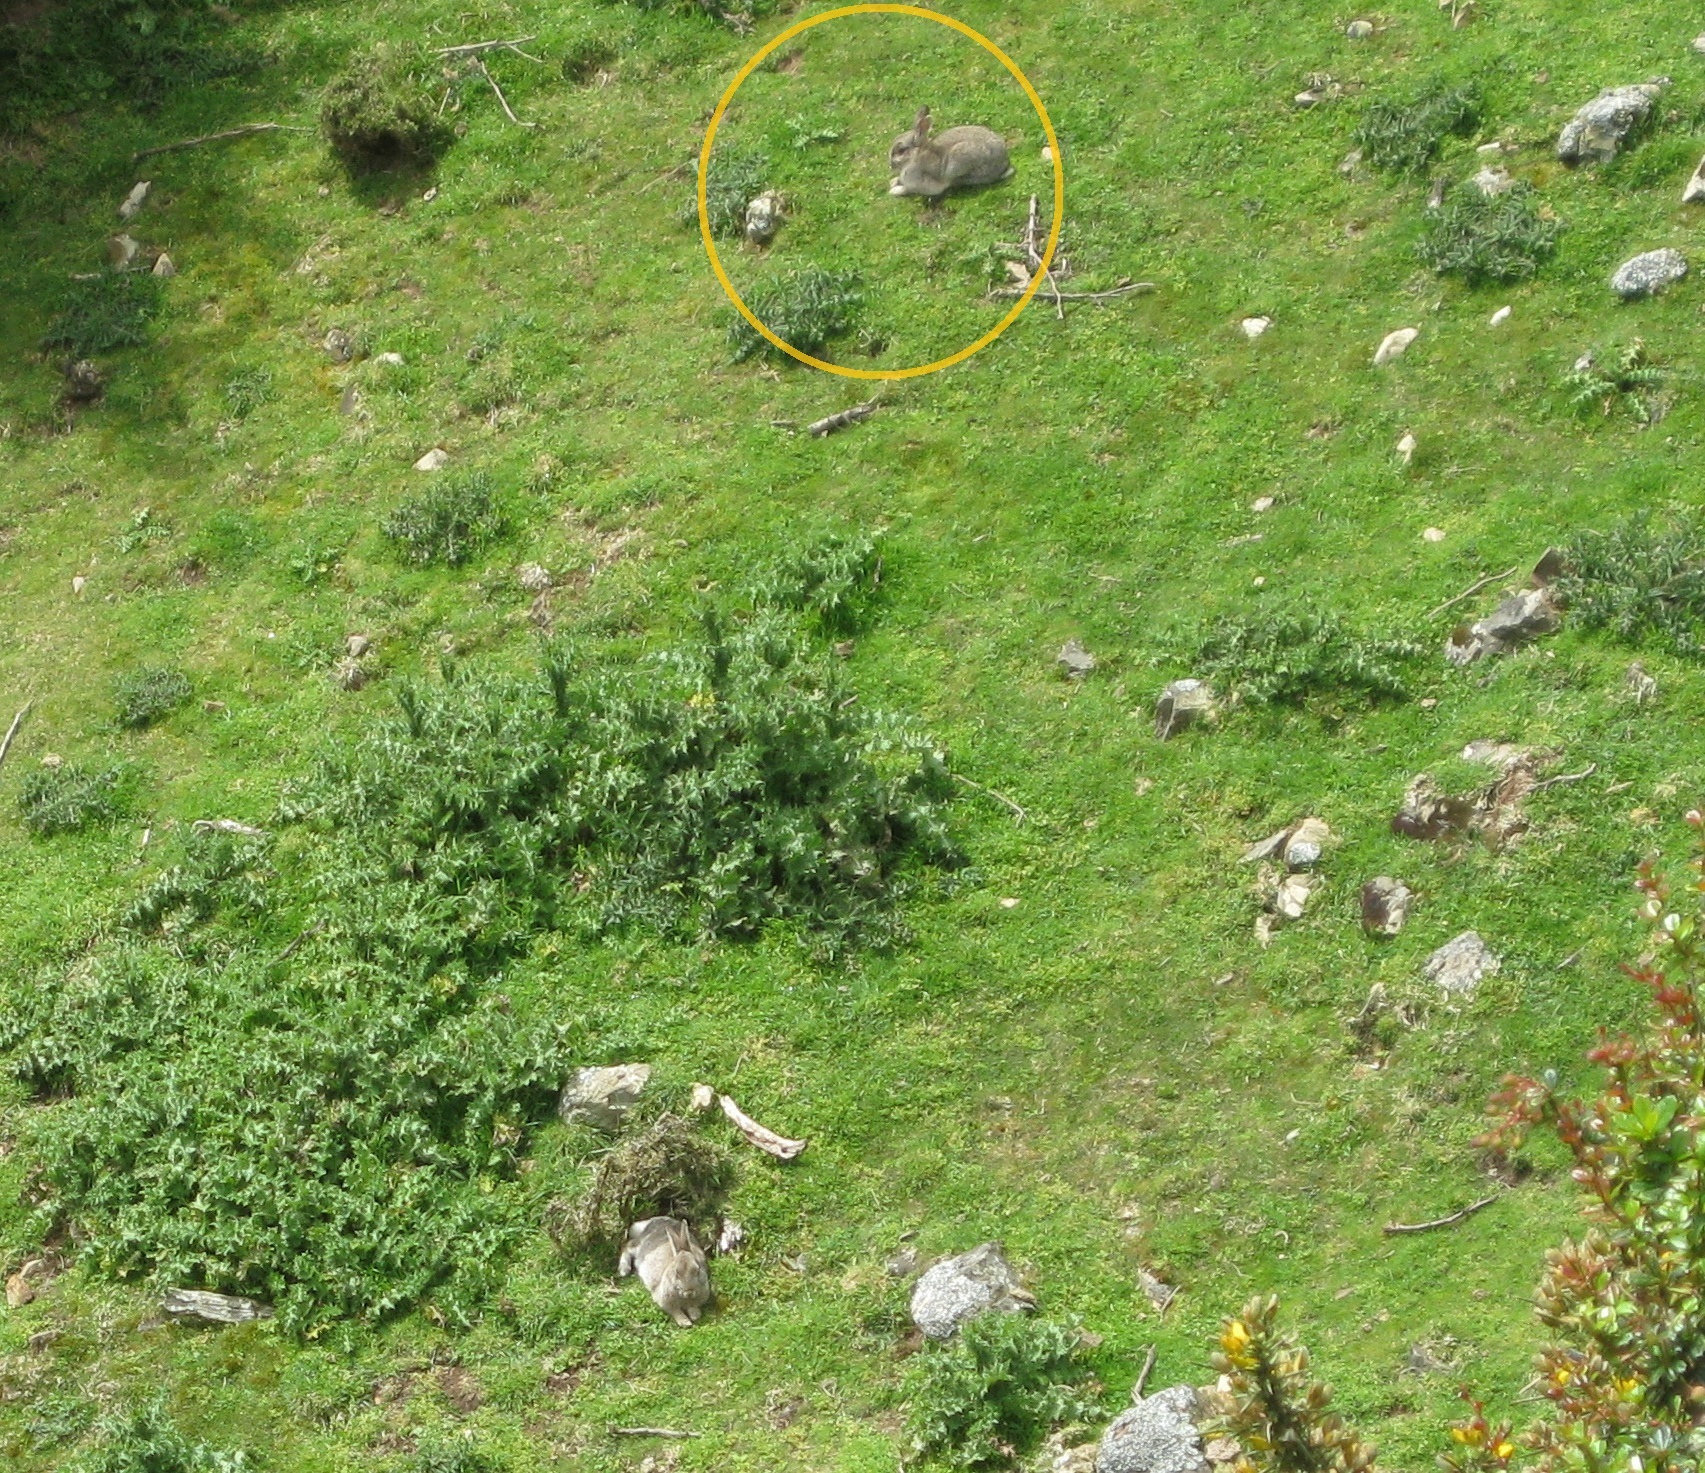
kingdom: Animalia
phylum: Chordata
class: Mammalia
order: Lagomorpha
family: Leporidae
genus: Oryctolagus
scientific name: Oryctolagus cuniculus
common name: European rabbit
